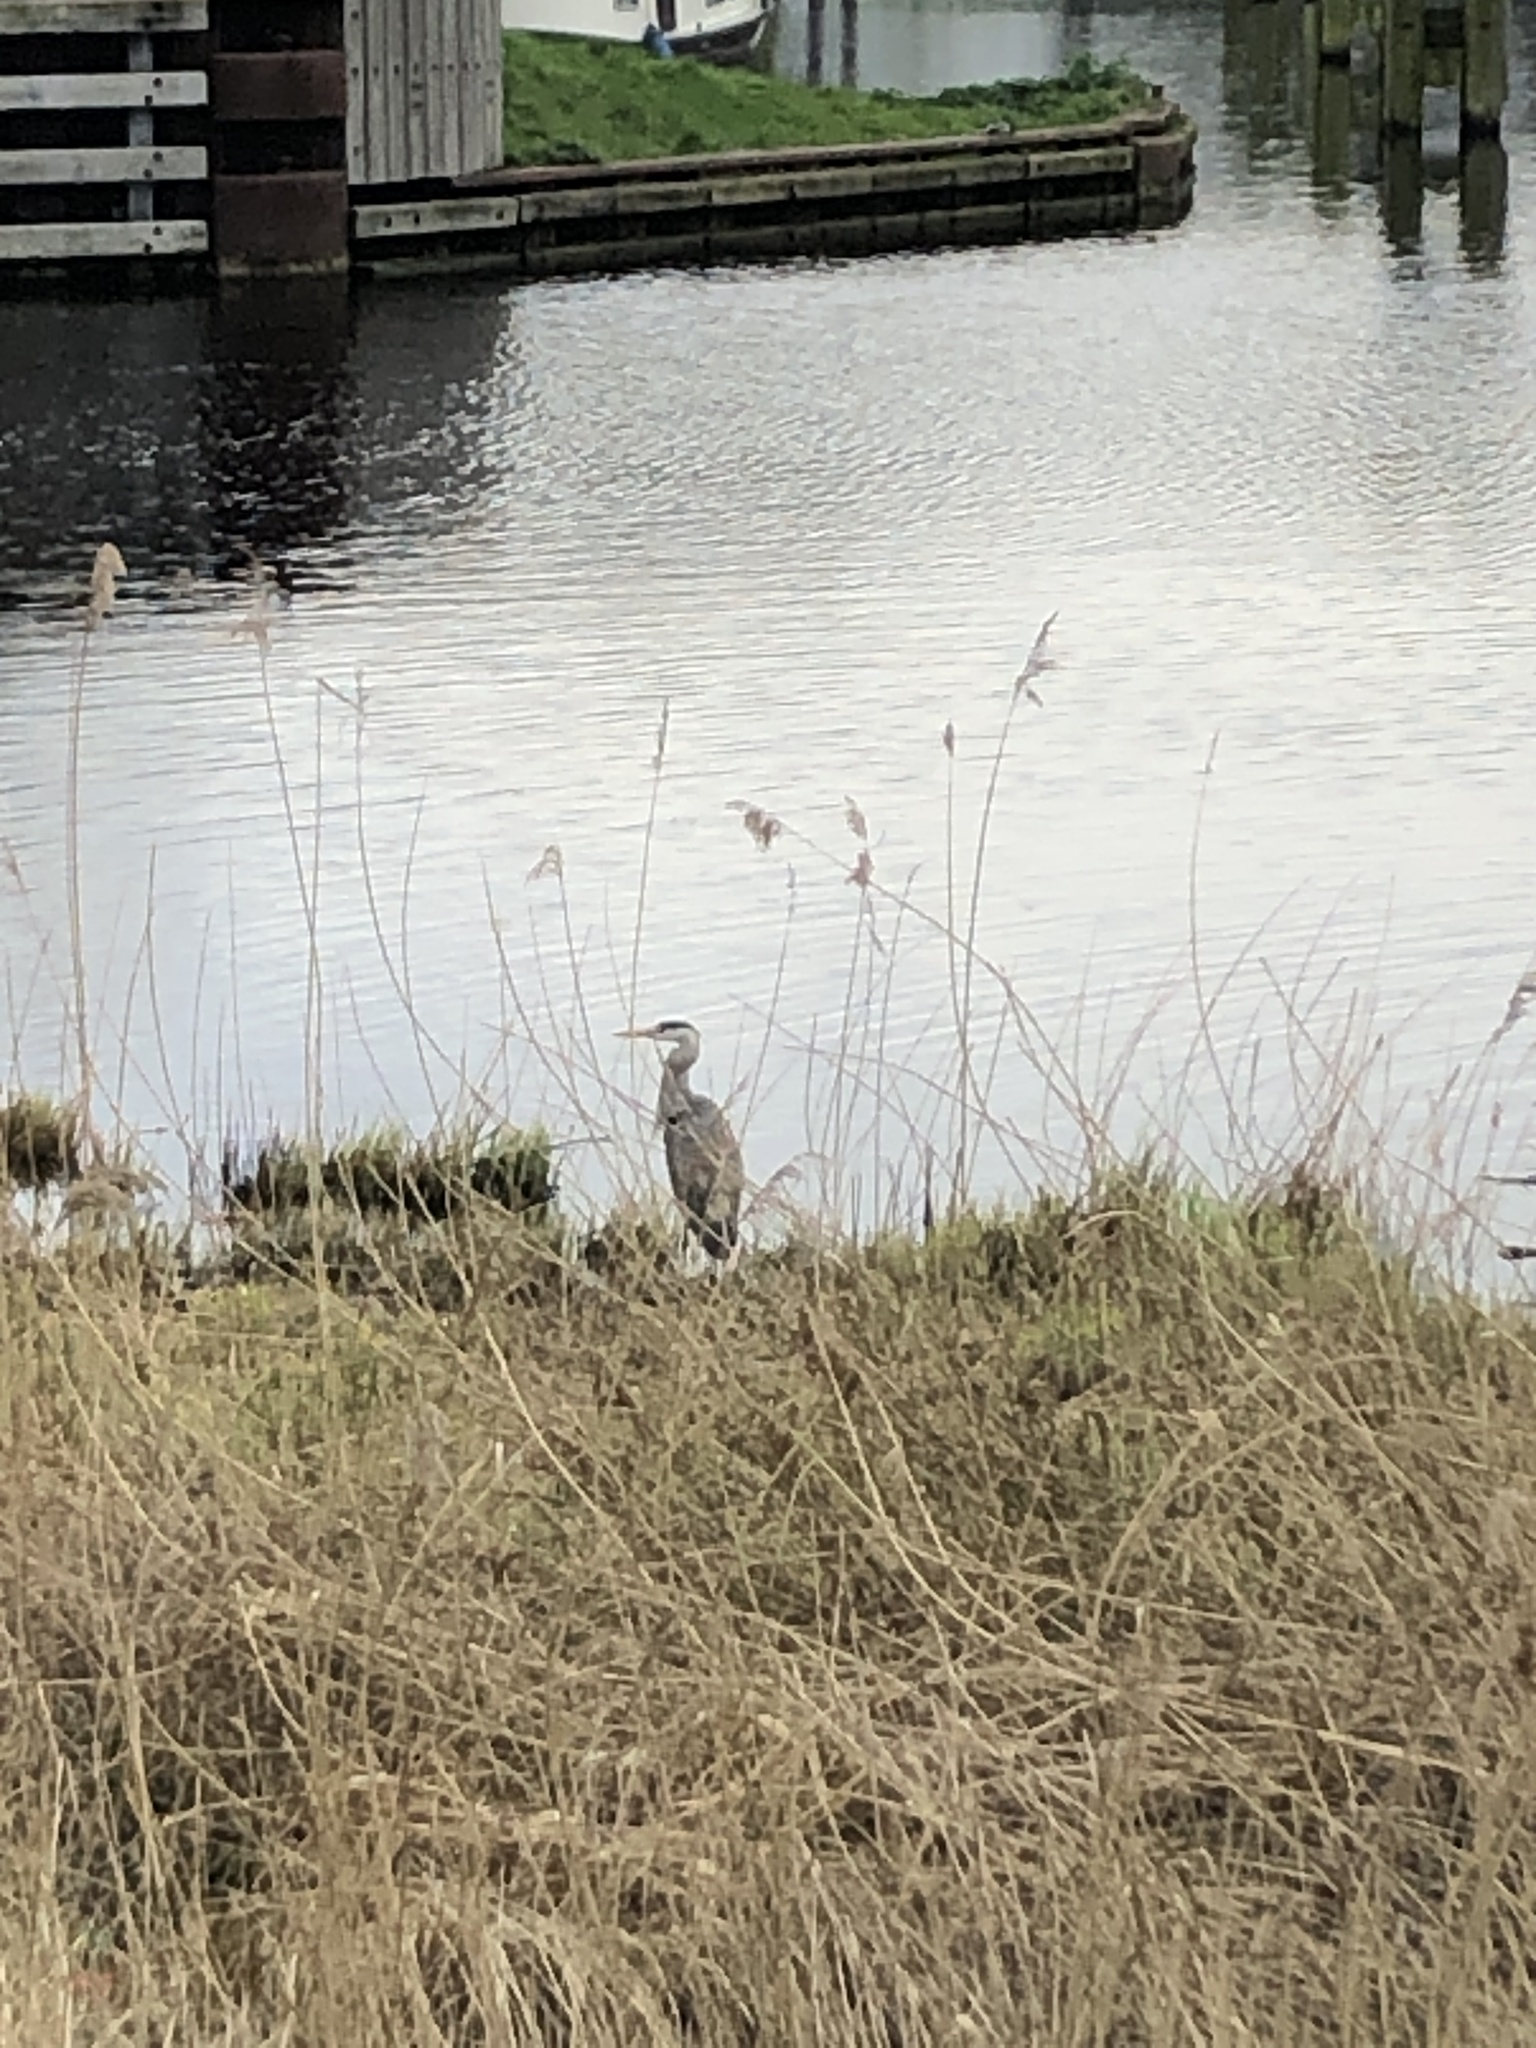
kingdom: Animalia
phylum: Chordata
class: Aves
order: Pelecaniformes
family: Ardeidae
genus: Ardea
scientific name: Ardea cinerea
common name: Grey heron
